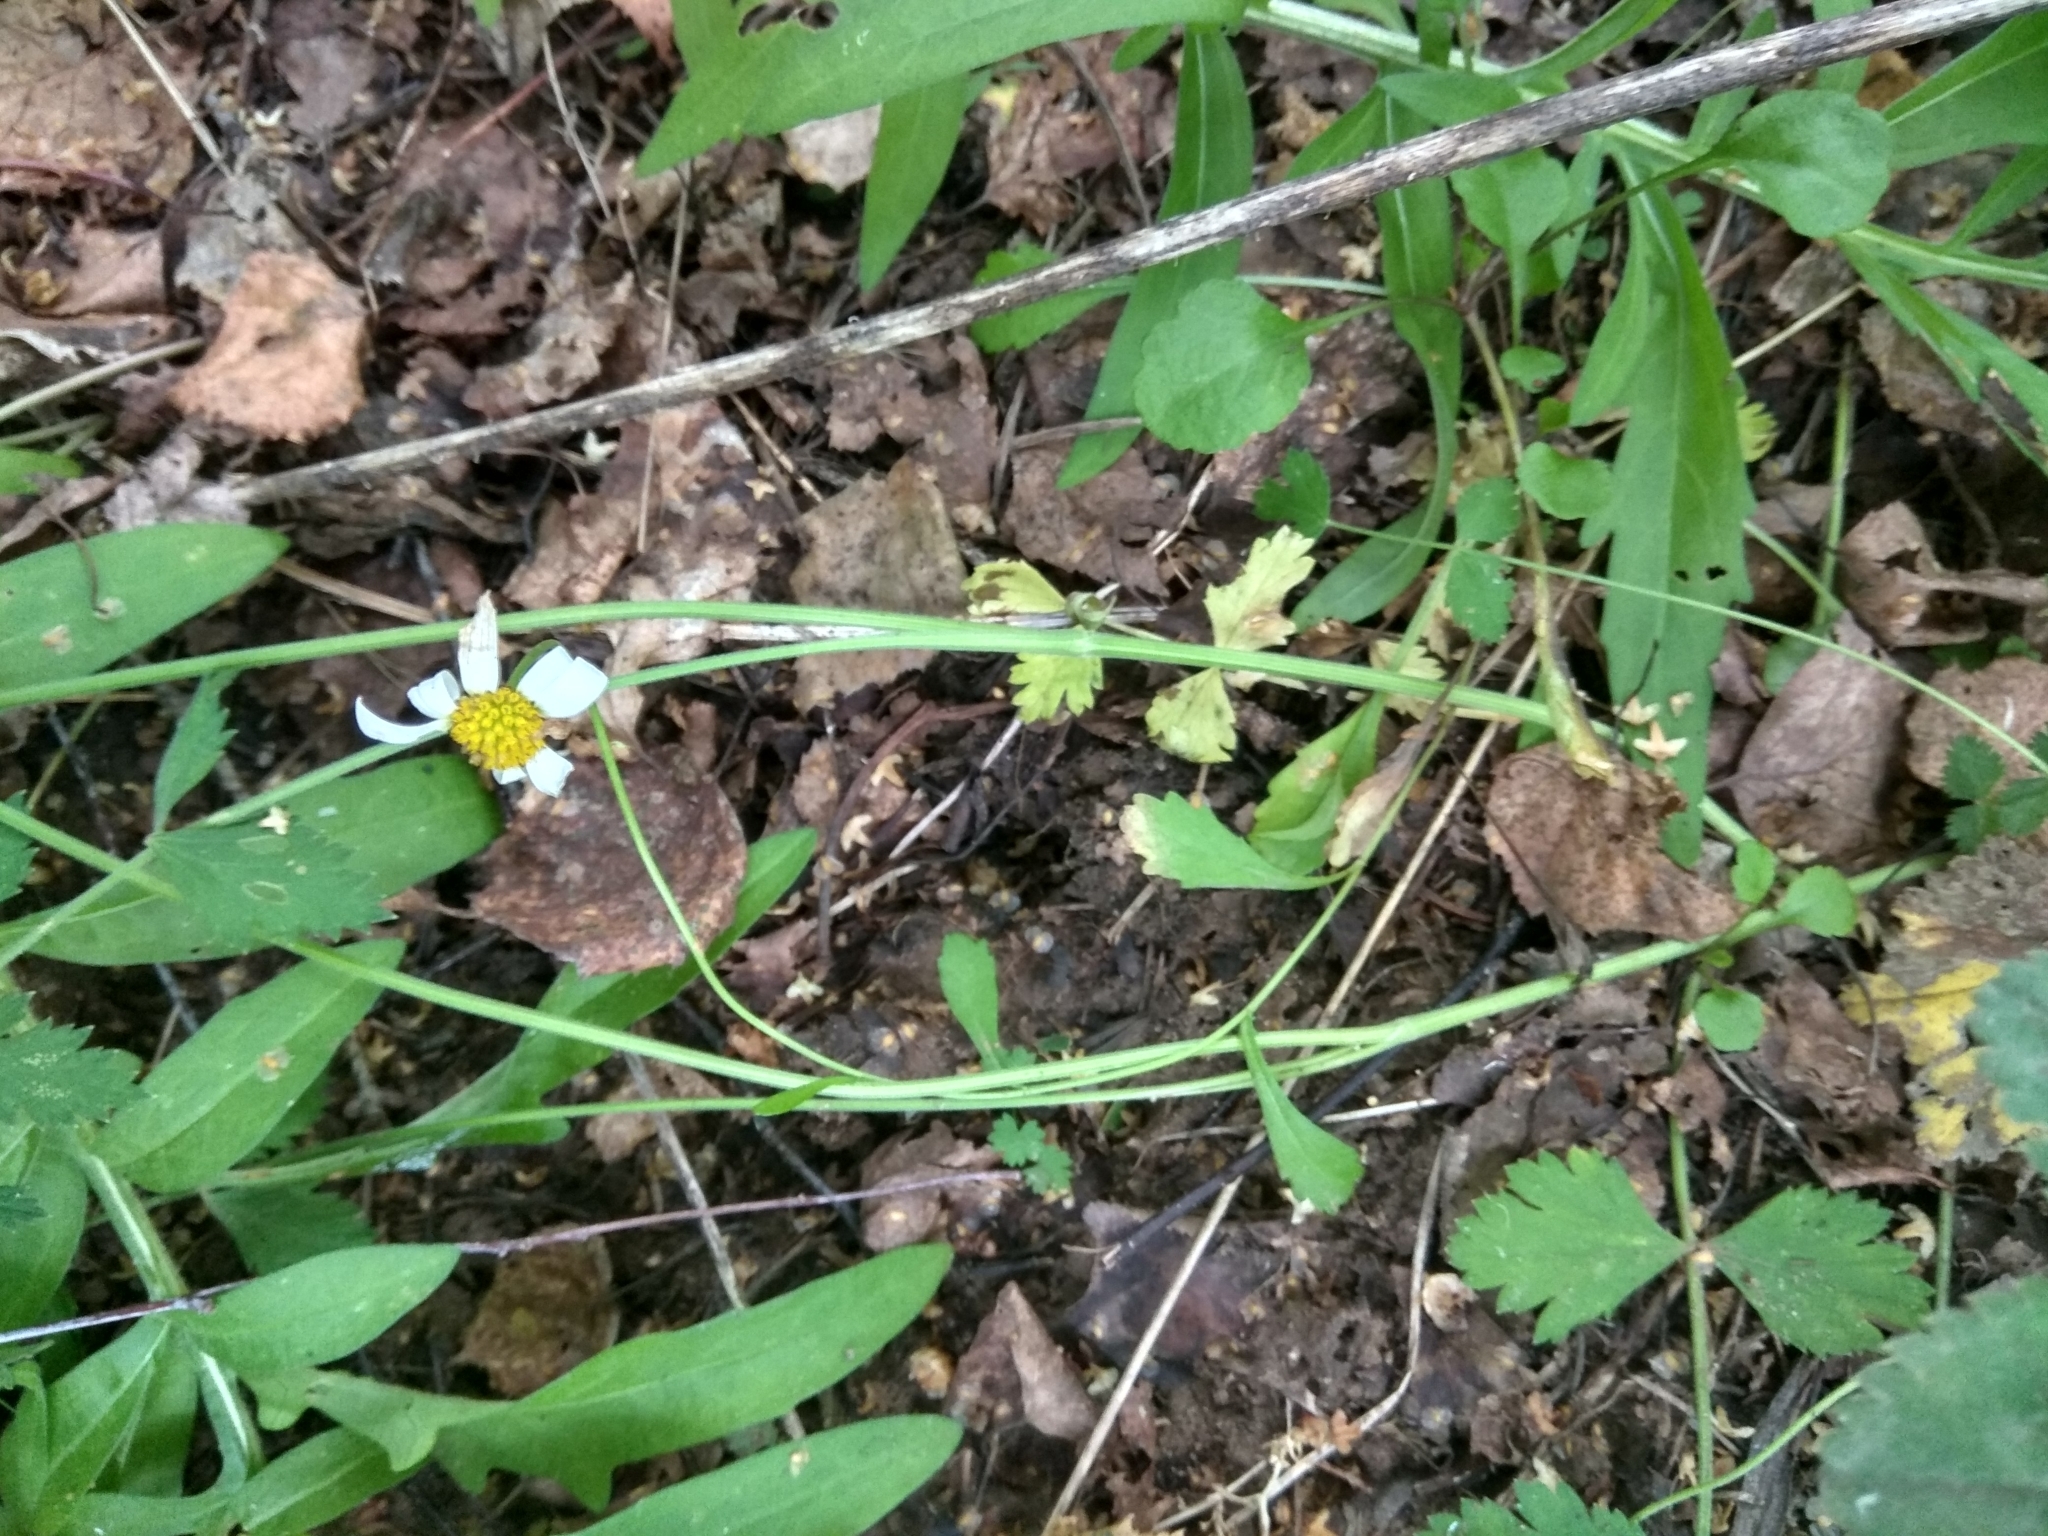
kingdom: Plantae
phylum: Tracheophyta
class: Magnoliopsida
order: Asterales
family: Asteraceae
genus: Leucanthemum
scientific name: Leucanthemum vulgare
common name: Oxeye daisy
